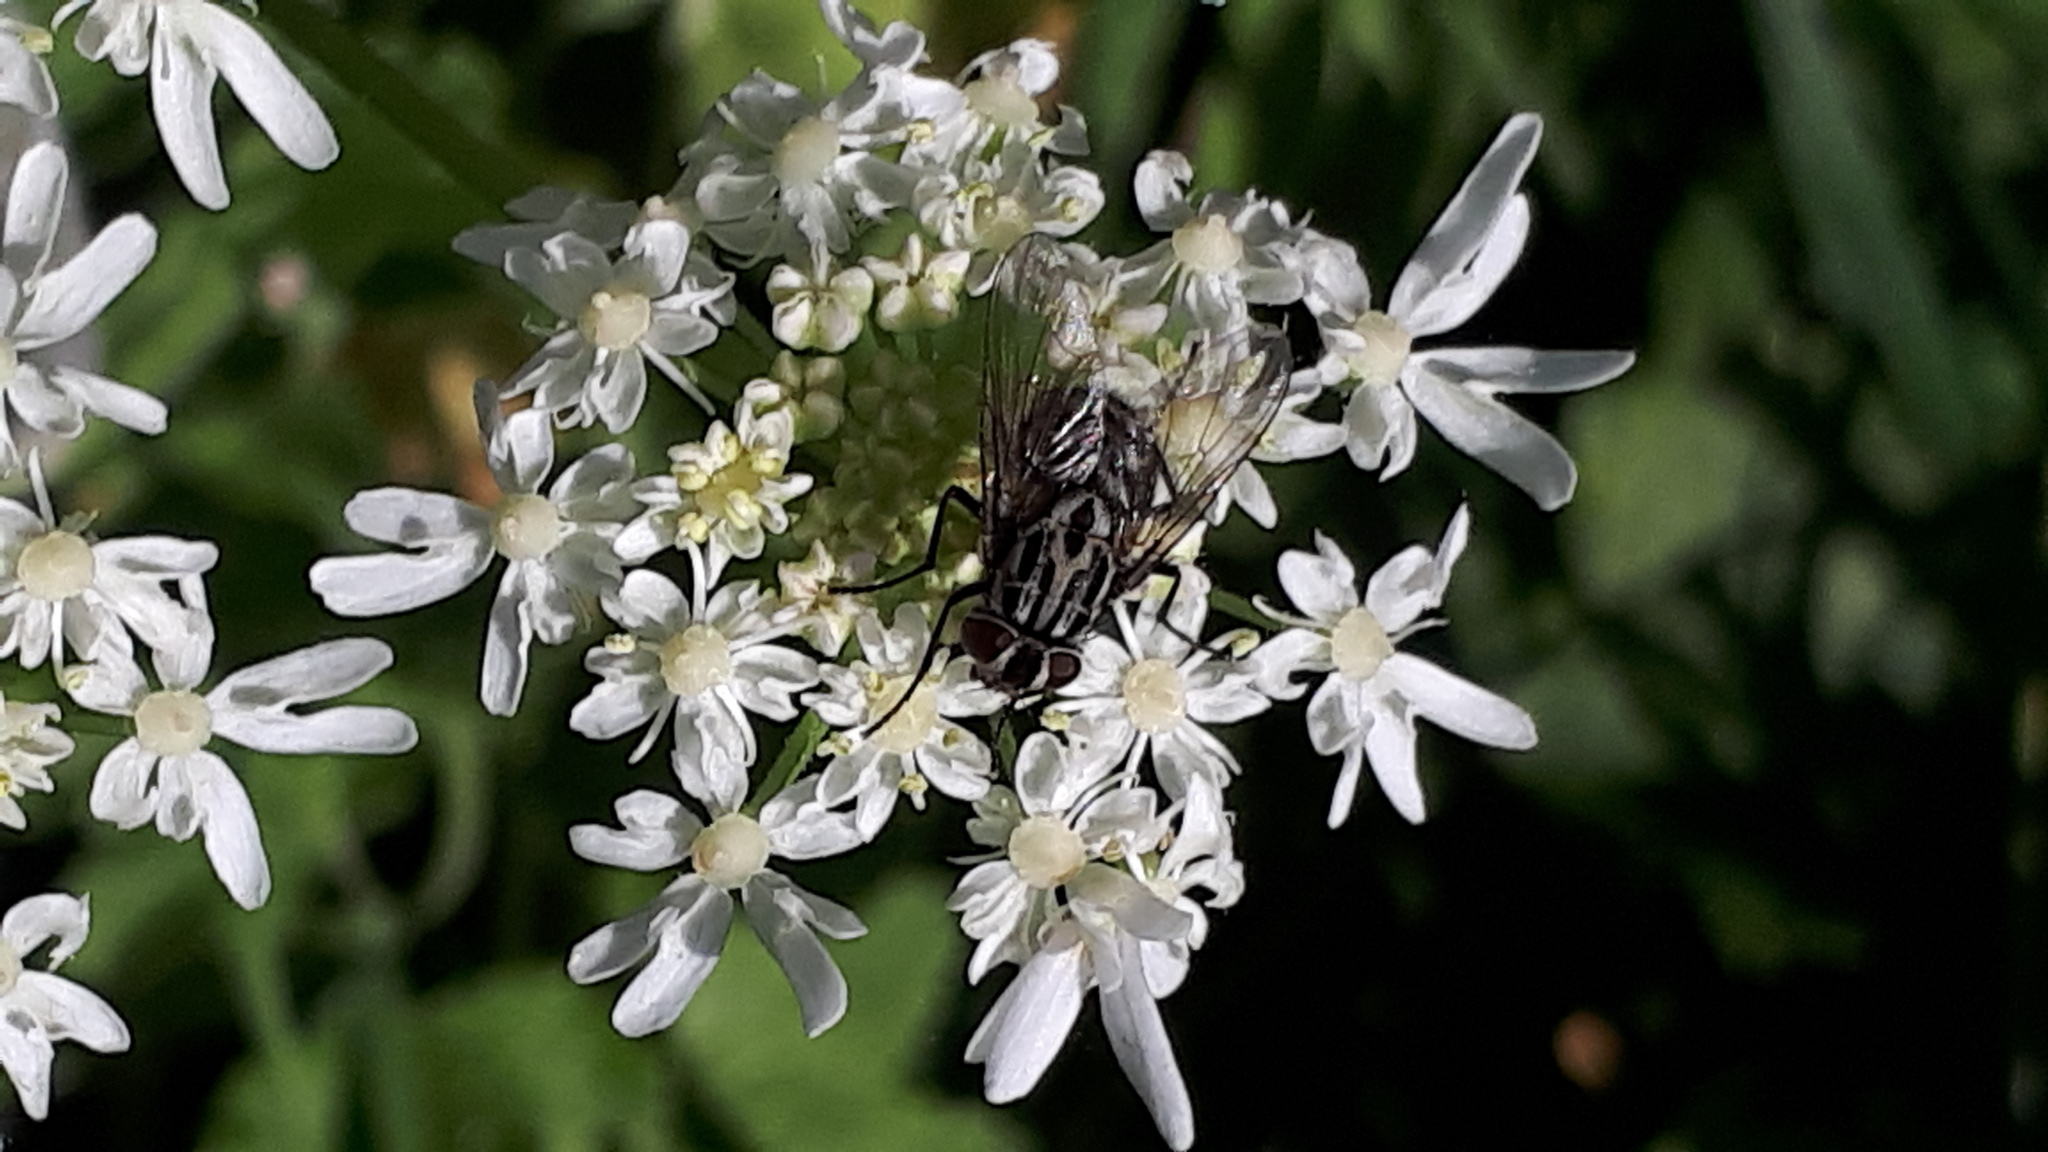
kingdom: Animalia
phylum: Arthropoda
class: Insecta
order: Diptera
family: Muscidae
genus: Graphomya
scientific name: Graphomya maculata
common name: Muscid fly
